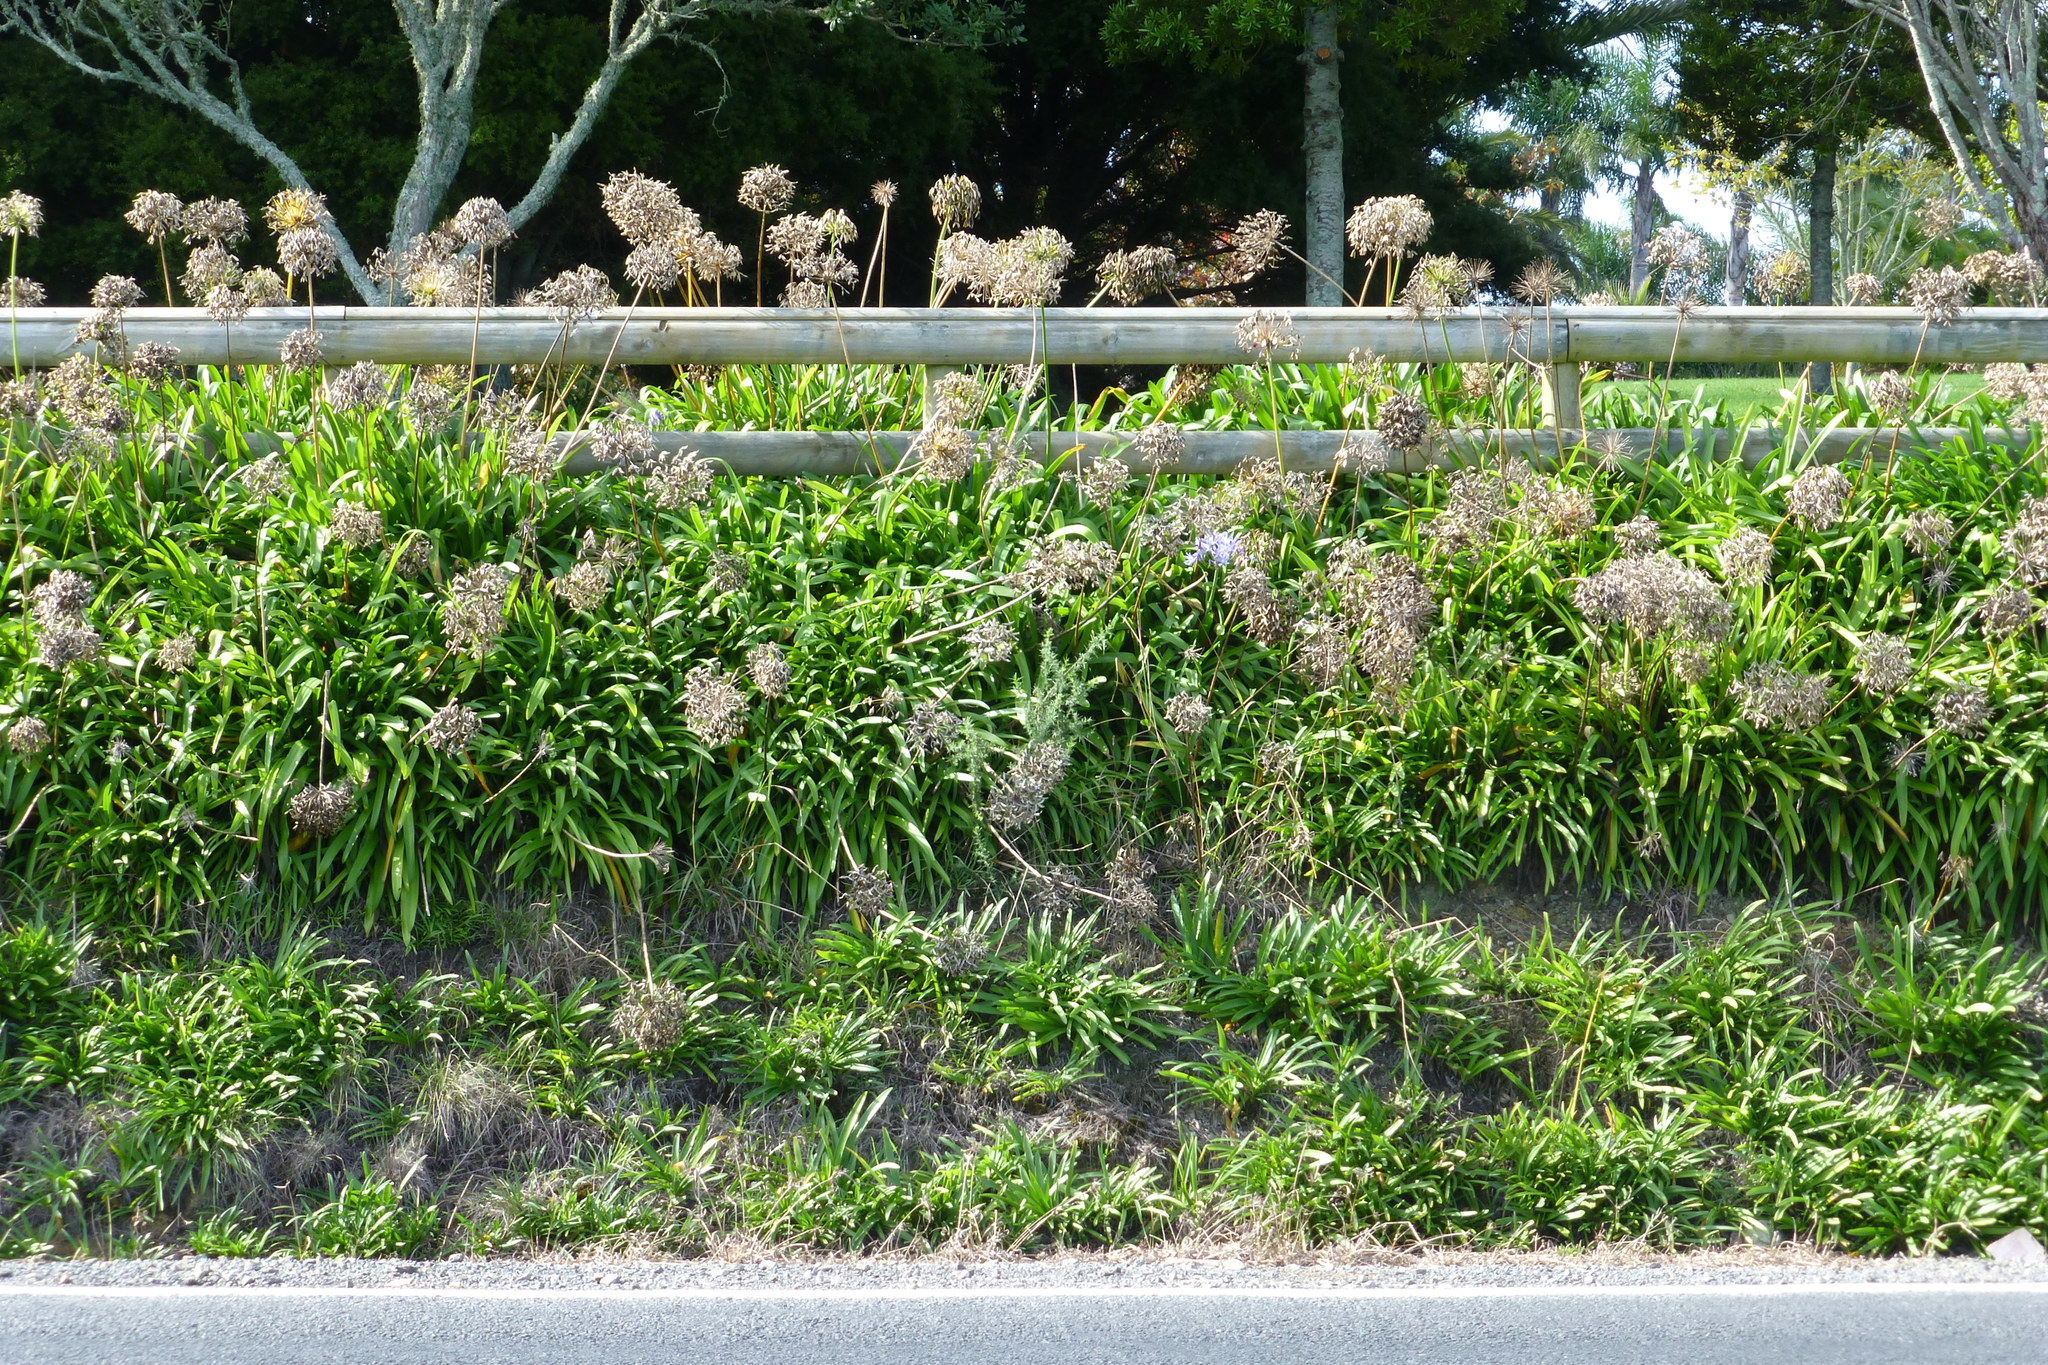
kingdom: Plantae
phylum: Tracheophyta
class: Liliopsida
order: Asparagales
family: Amaryllidaceae
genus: Agapanthus
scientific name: Agapanthus praecox
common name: African-lily
